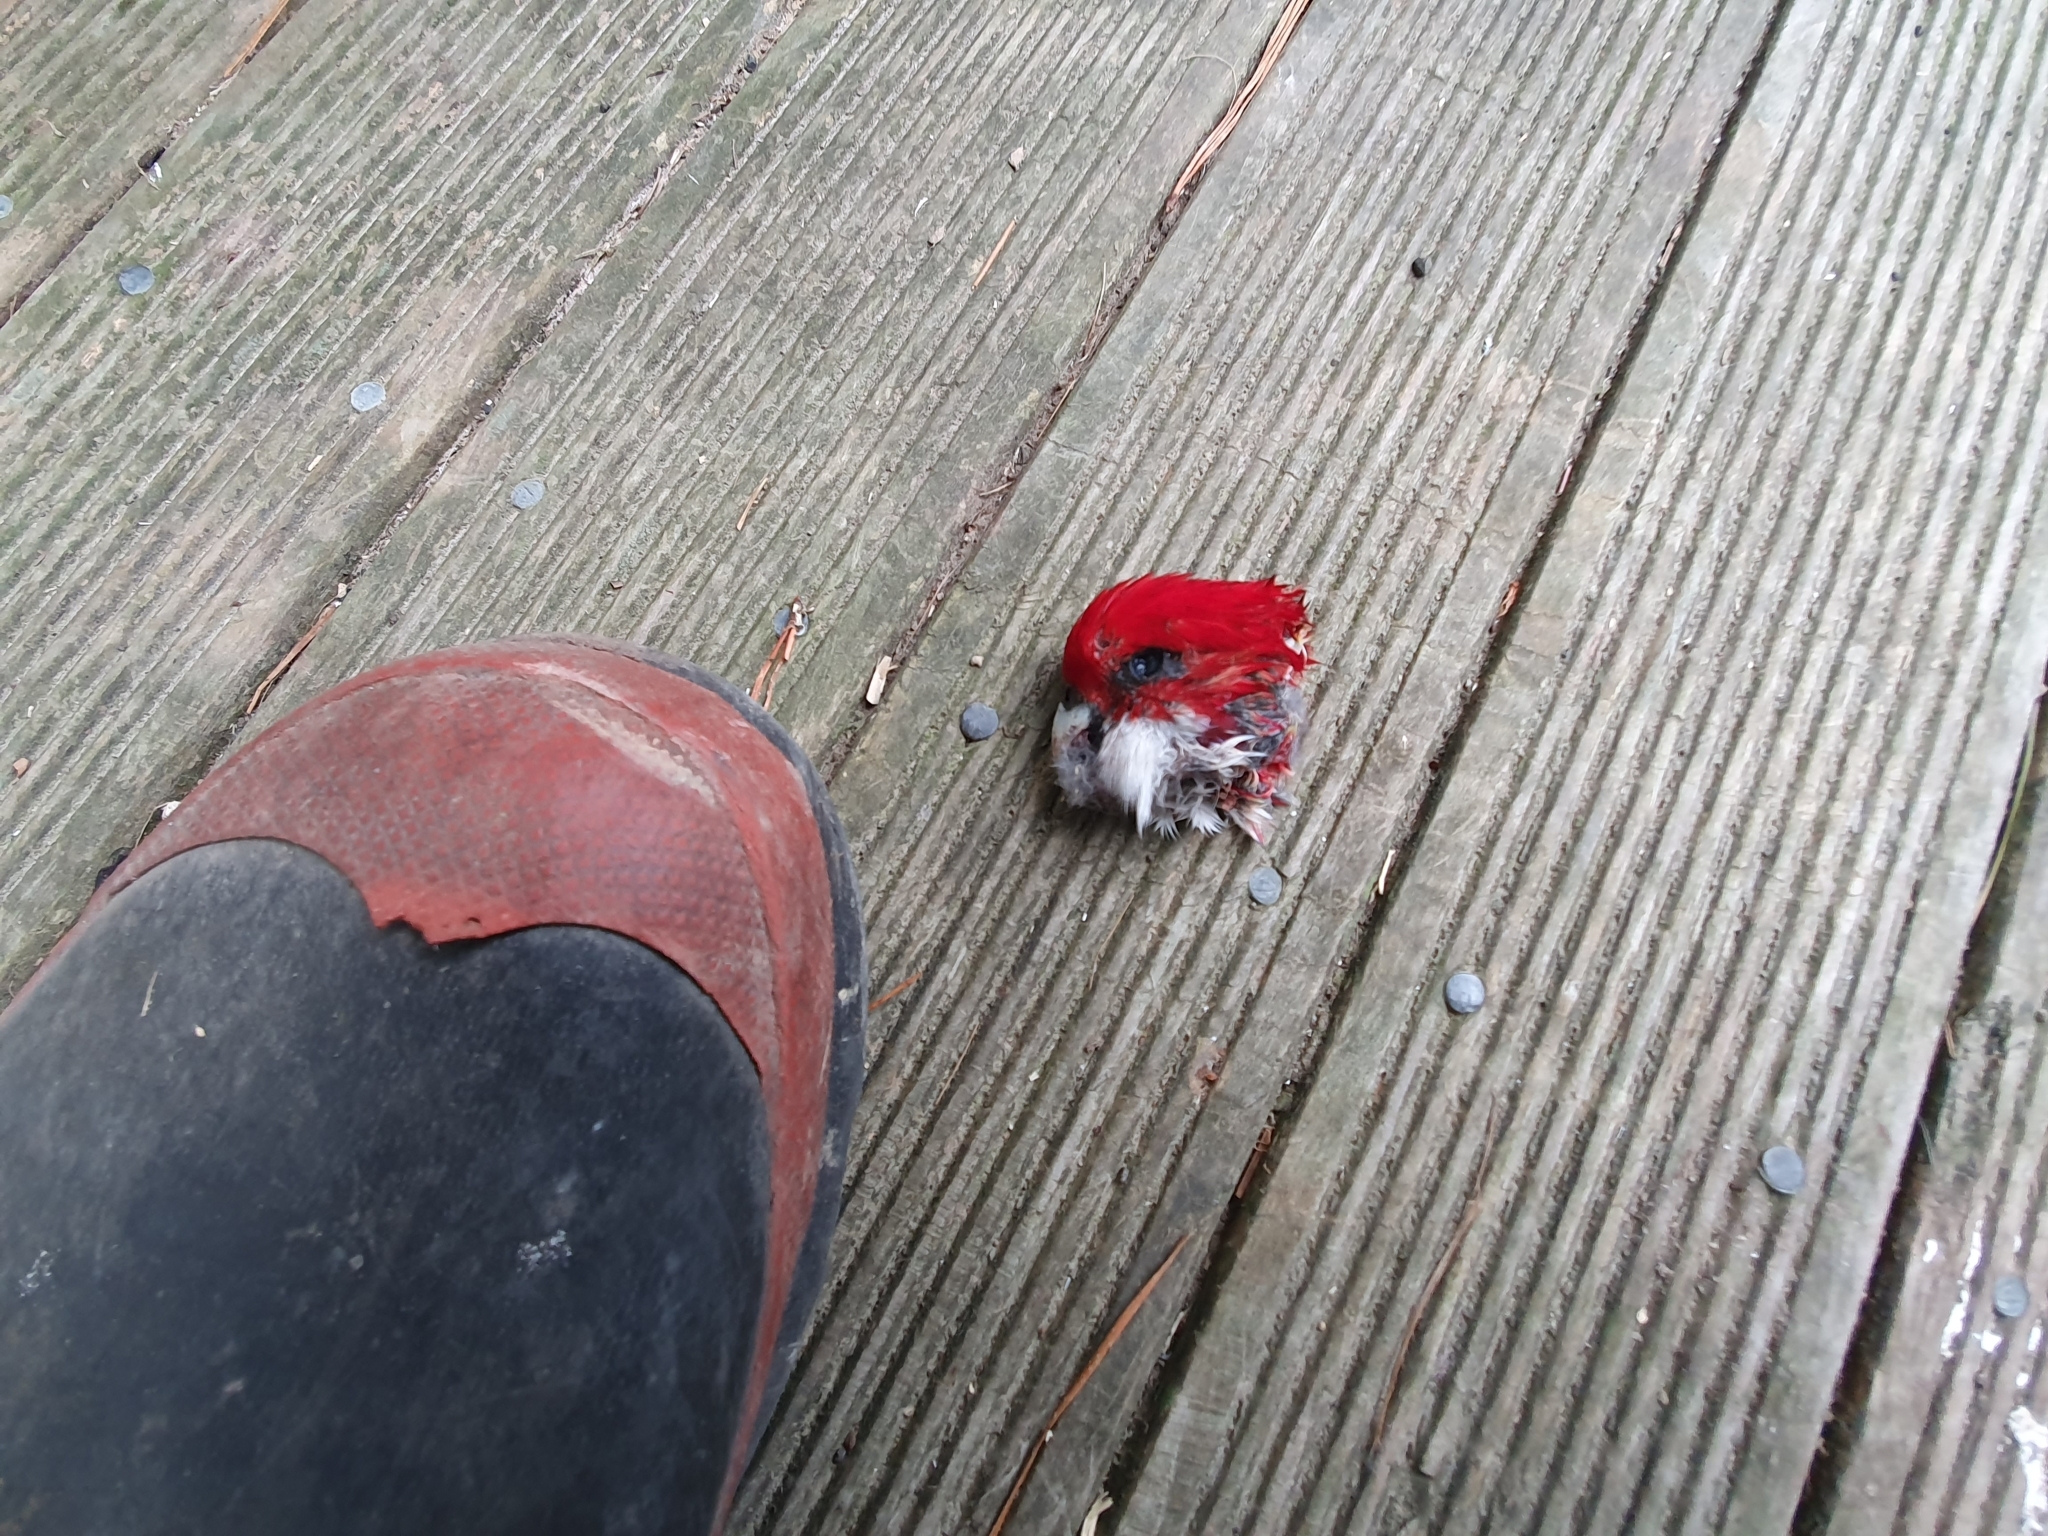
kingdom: Animalia
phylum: Chordata
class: Aves
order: Psittaciformes
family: Psittacidae
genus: Platycercus
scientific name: Platycercus eximius
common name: Eastern rosella
